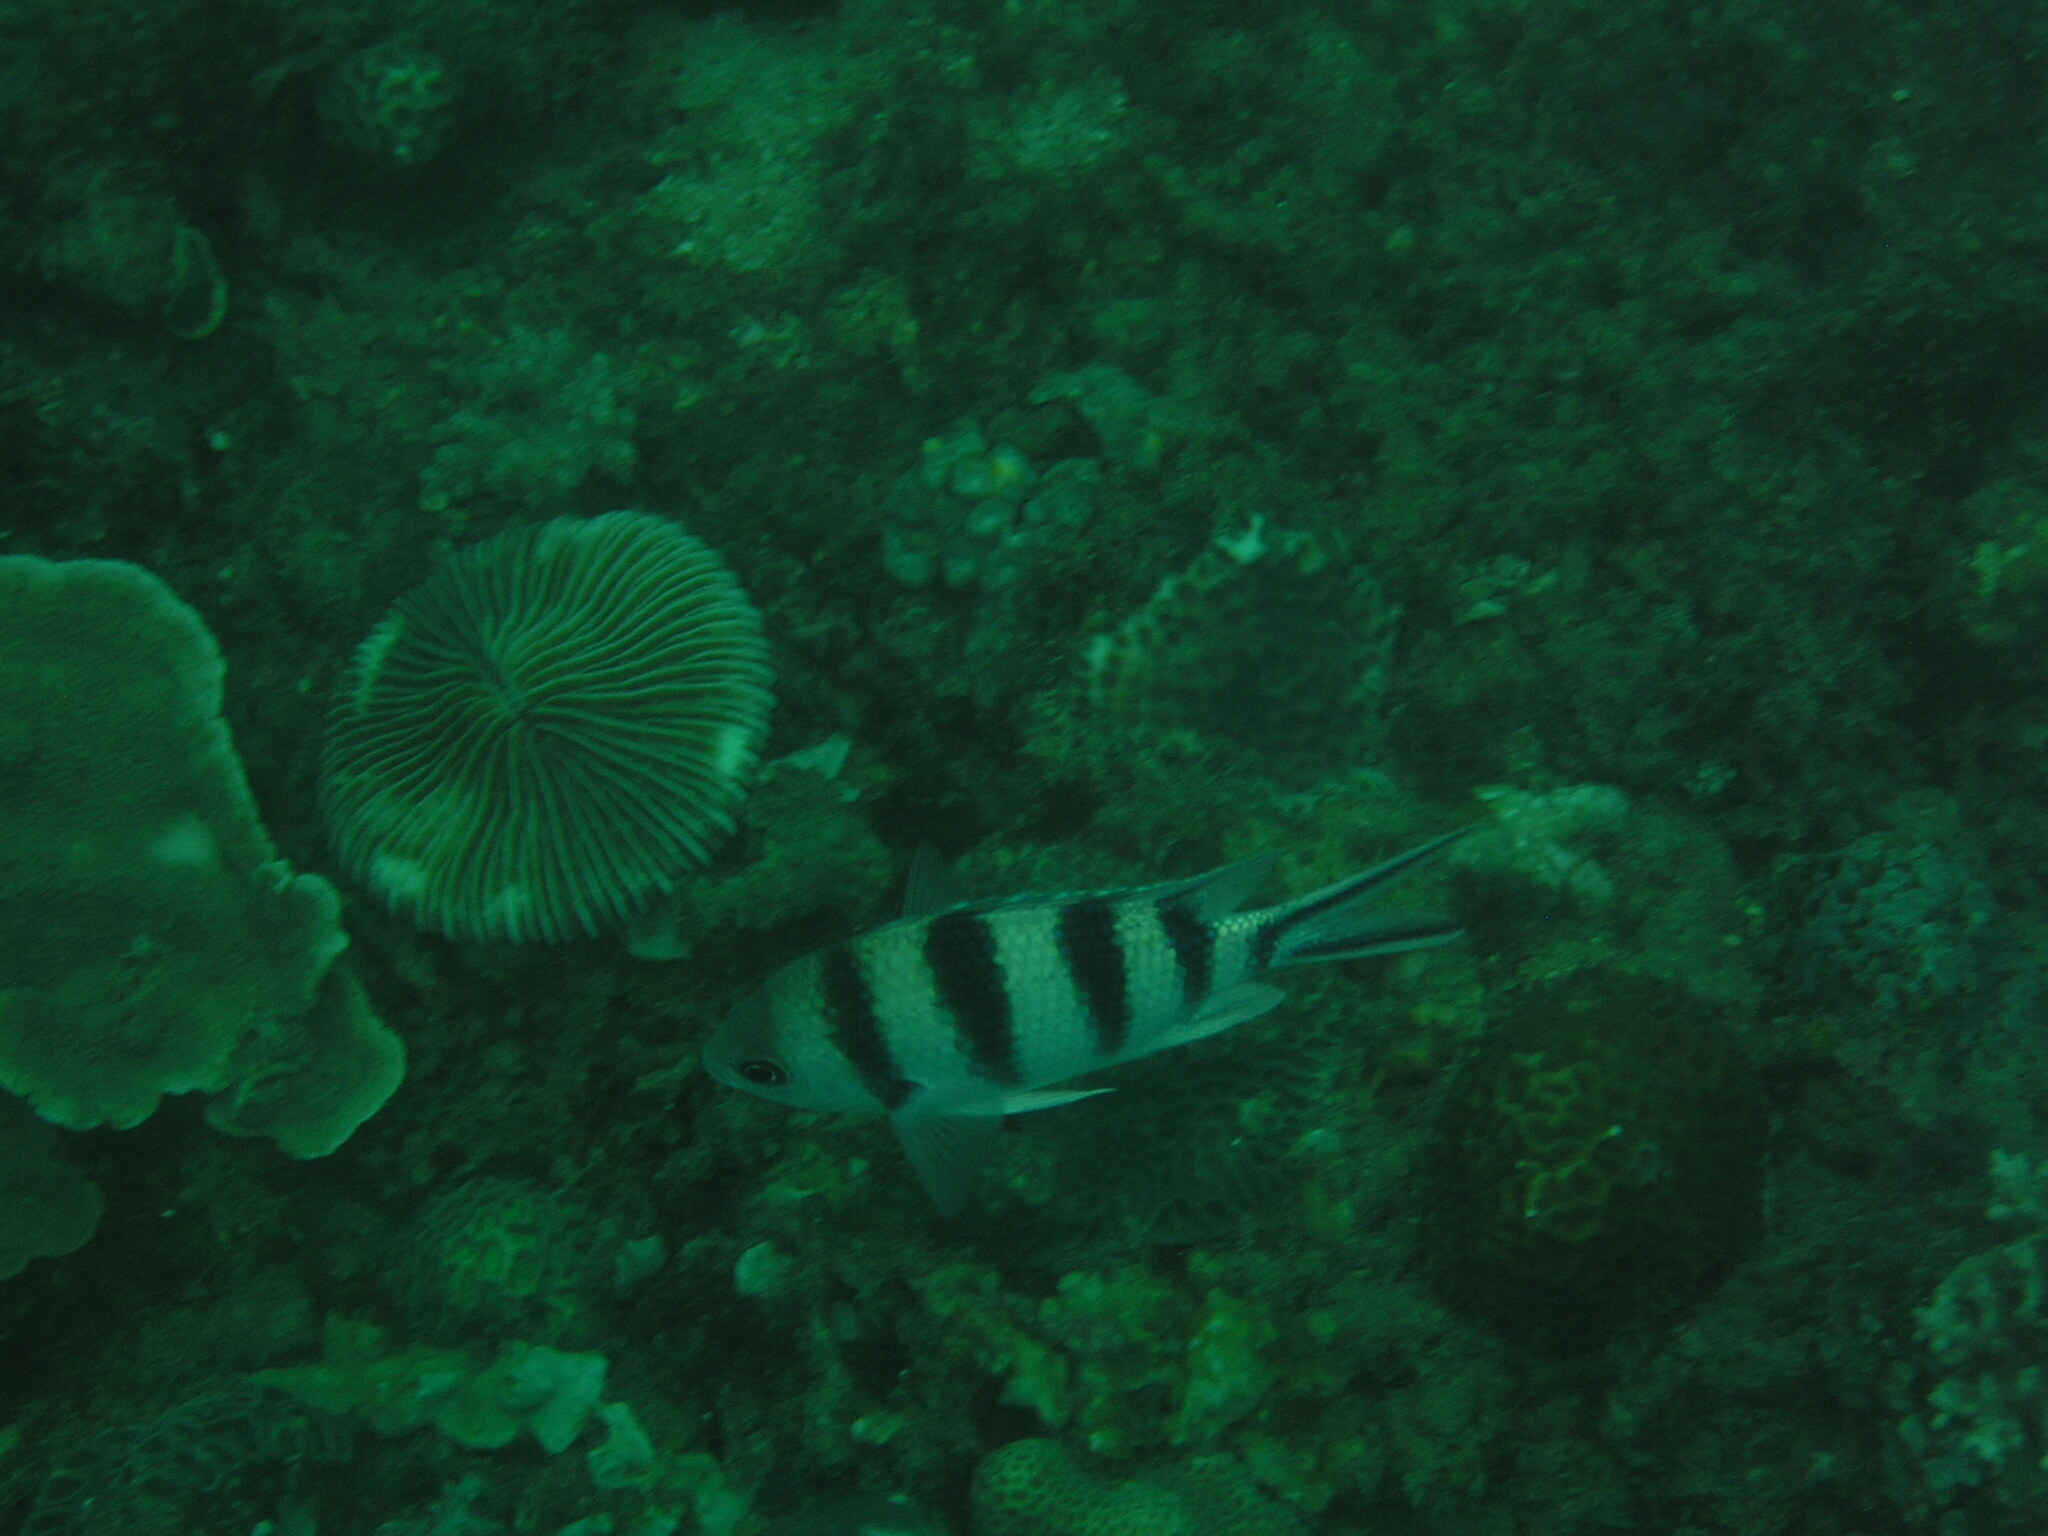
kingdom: Animalia
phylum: Chordata
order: Perciformes
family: Pomacentridae
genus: Abudefduf
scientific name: Abudefduf sexfasciatus
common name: Scissortail sergeant
